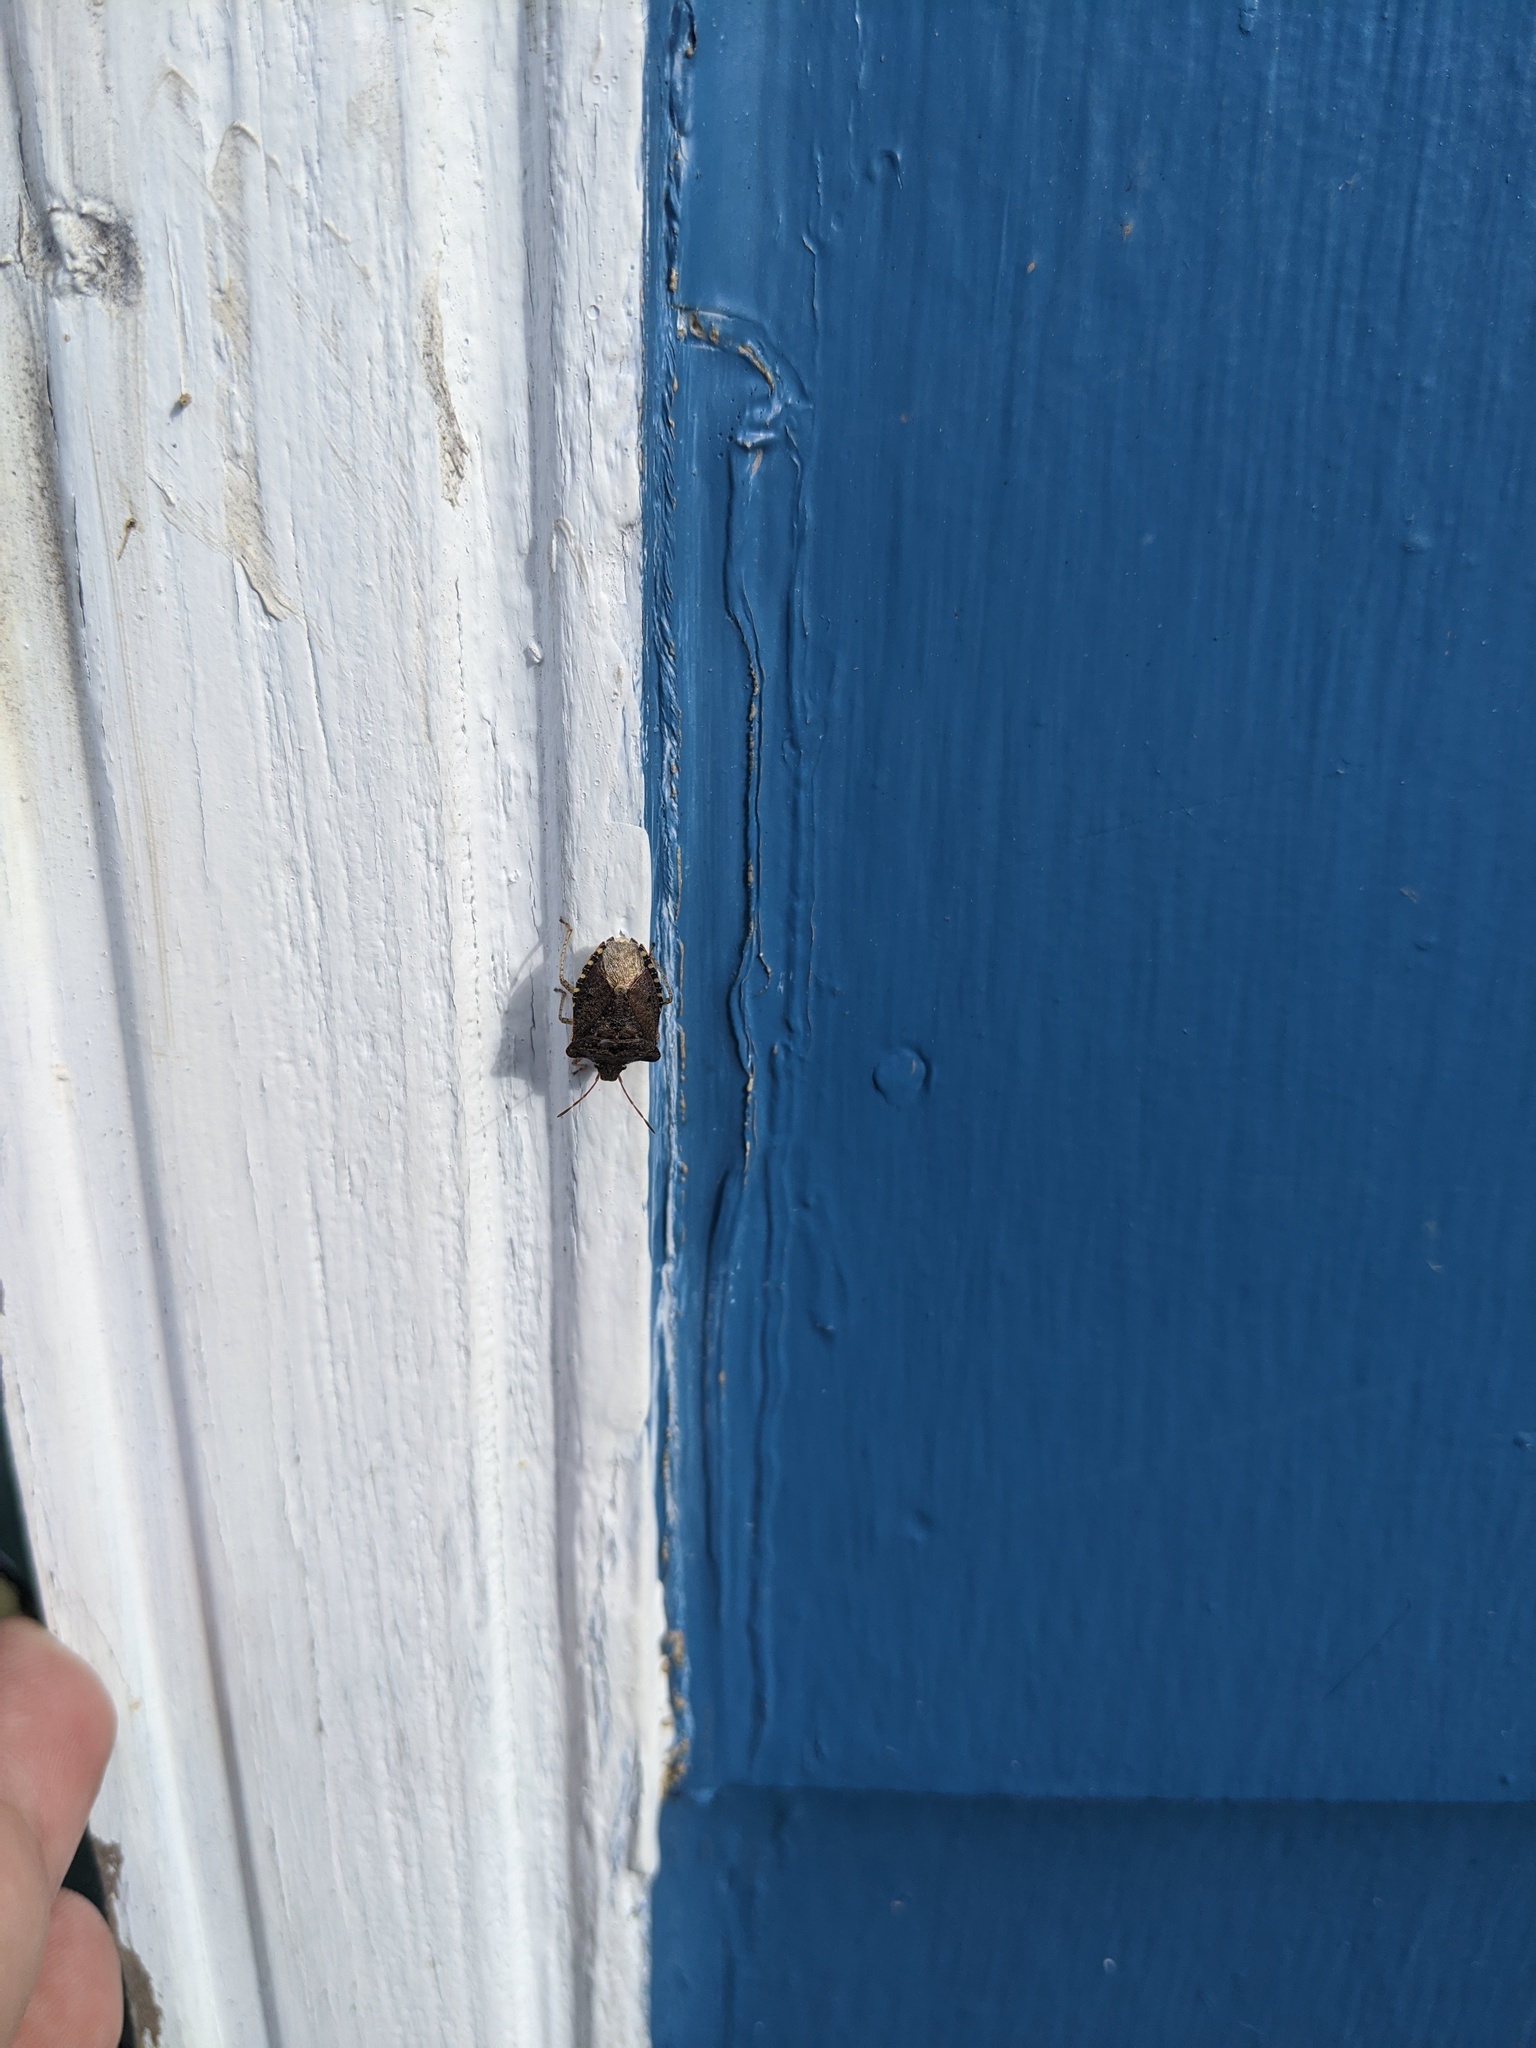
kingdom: Animalia
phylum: Arthropoda
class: Insecta
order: Hemiptera
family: Pentatomidae
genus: Euschistus
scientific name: Euschistus tristigmus
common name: Dusky stink bug
